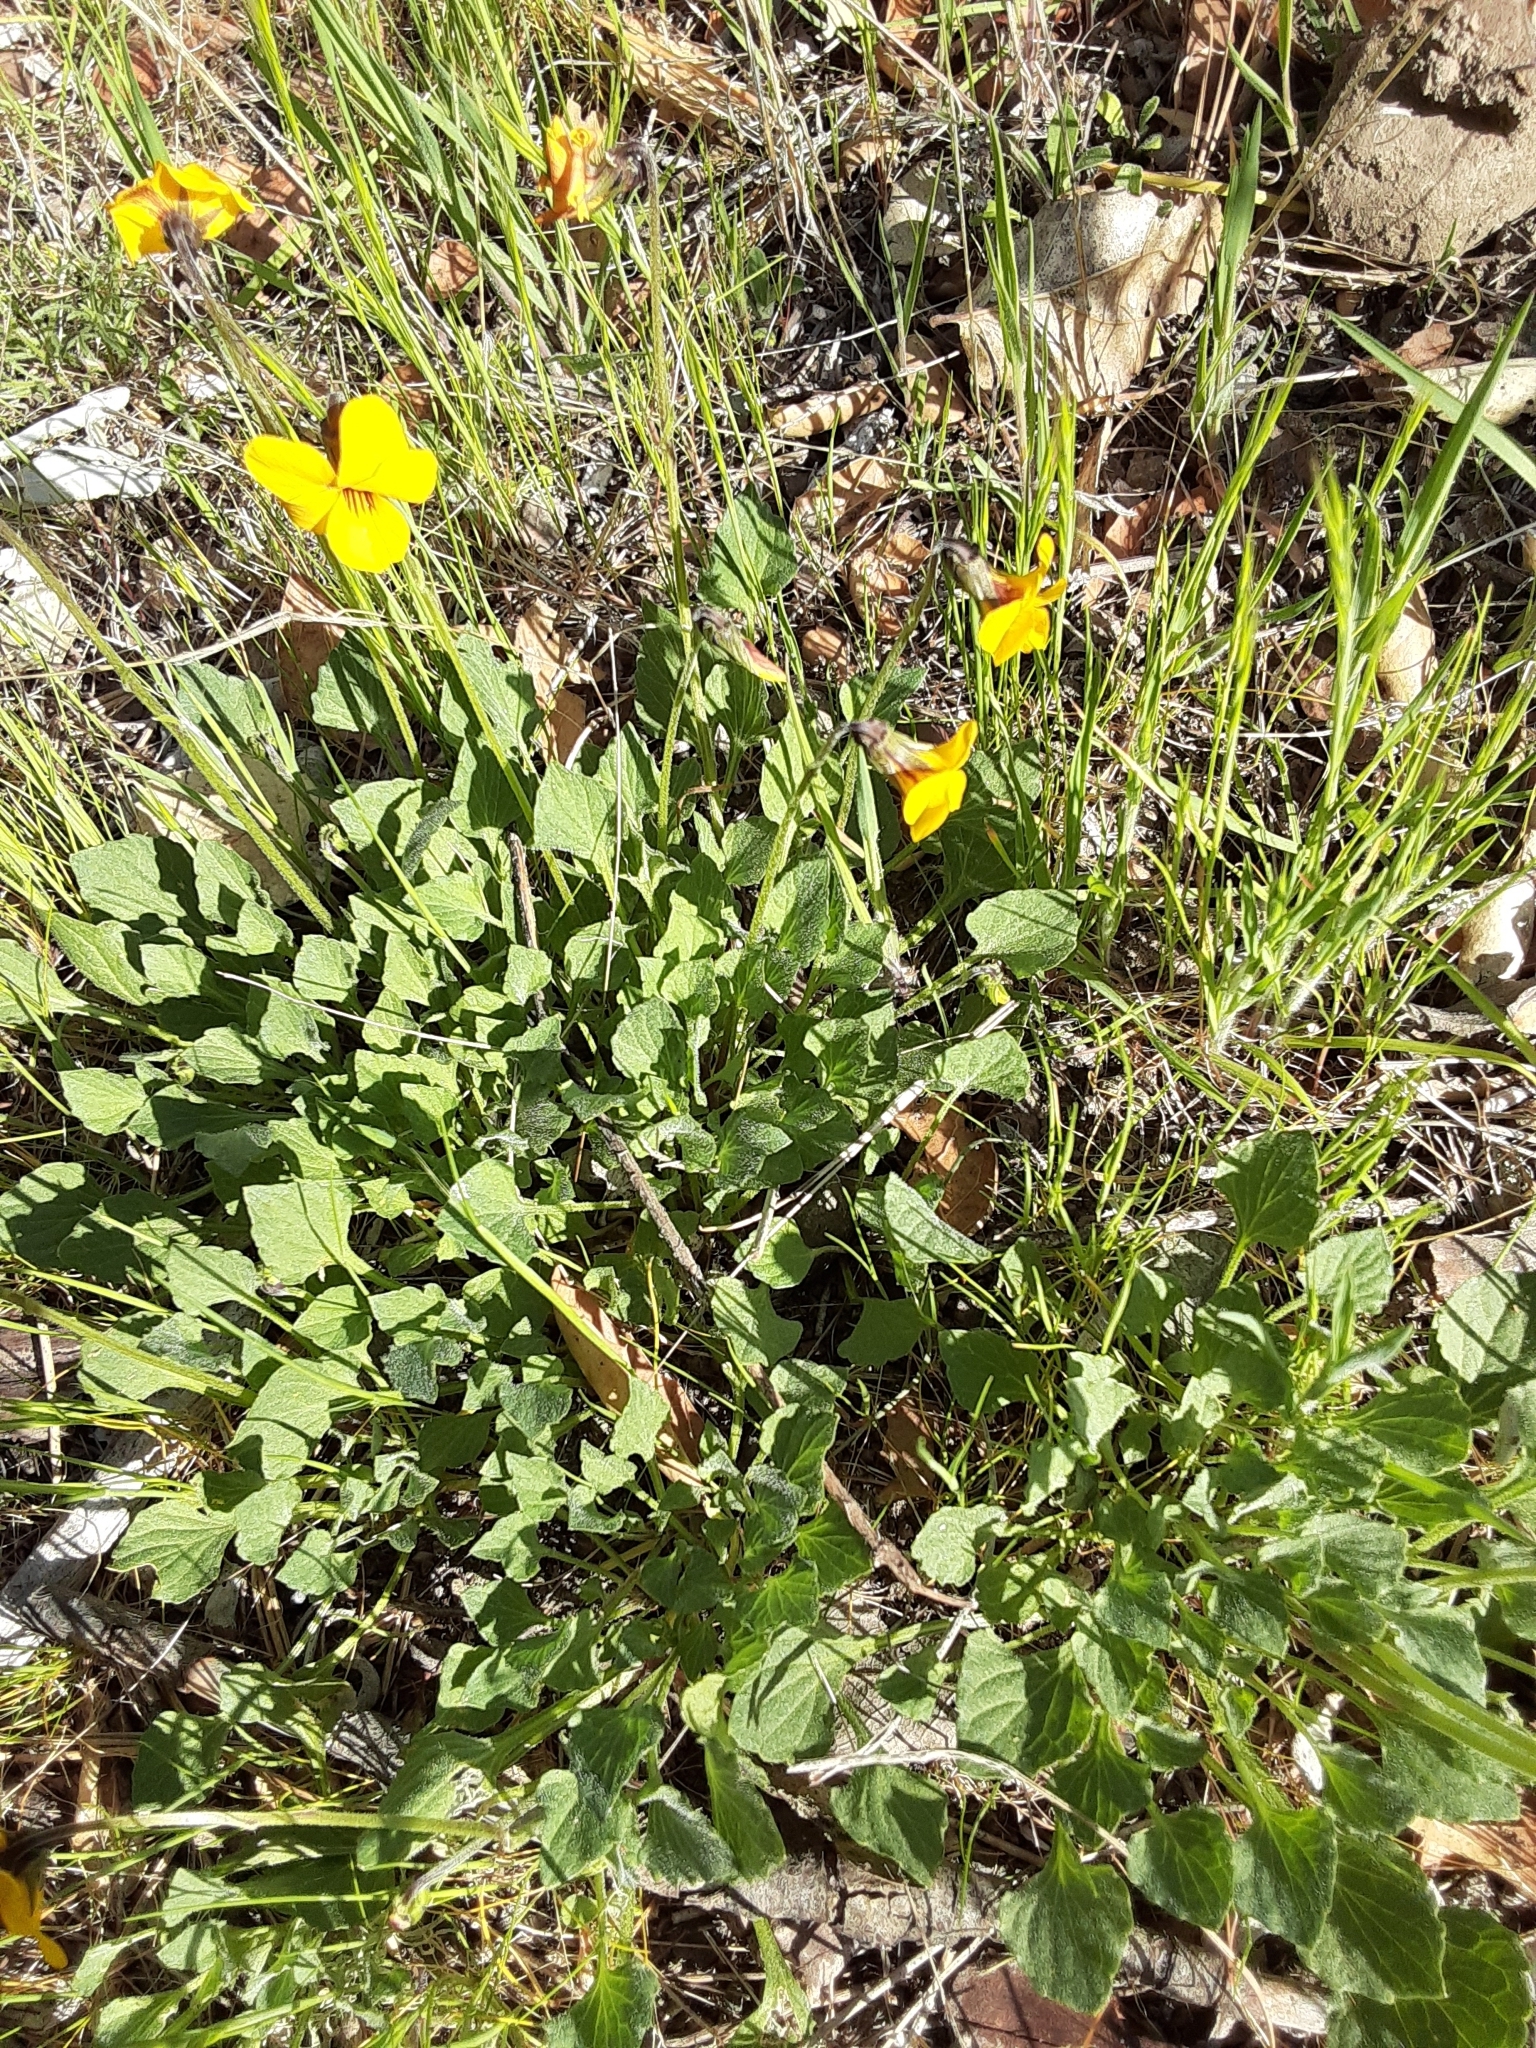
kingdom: Plantae
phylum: Tracheophyta
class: Magnoliopsida
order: Malpighiales
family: Violaceae
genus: Viola
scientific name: Viola pedunculata
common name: California golden violet
